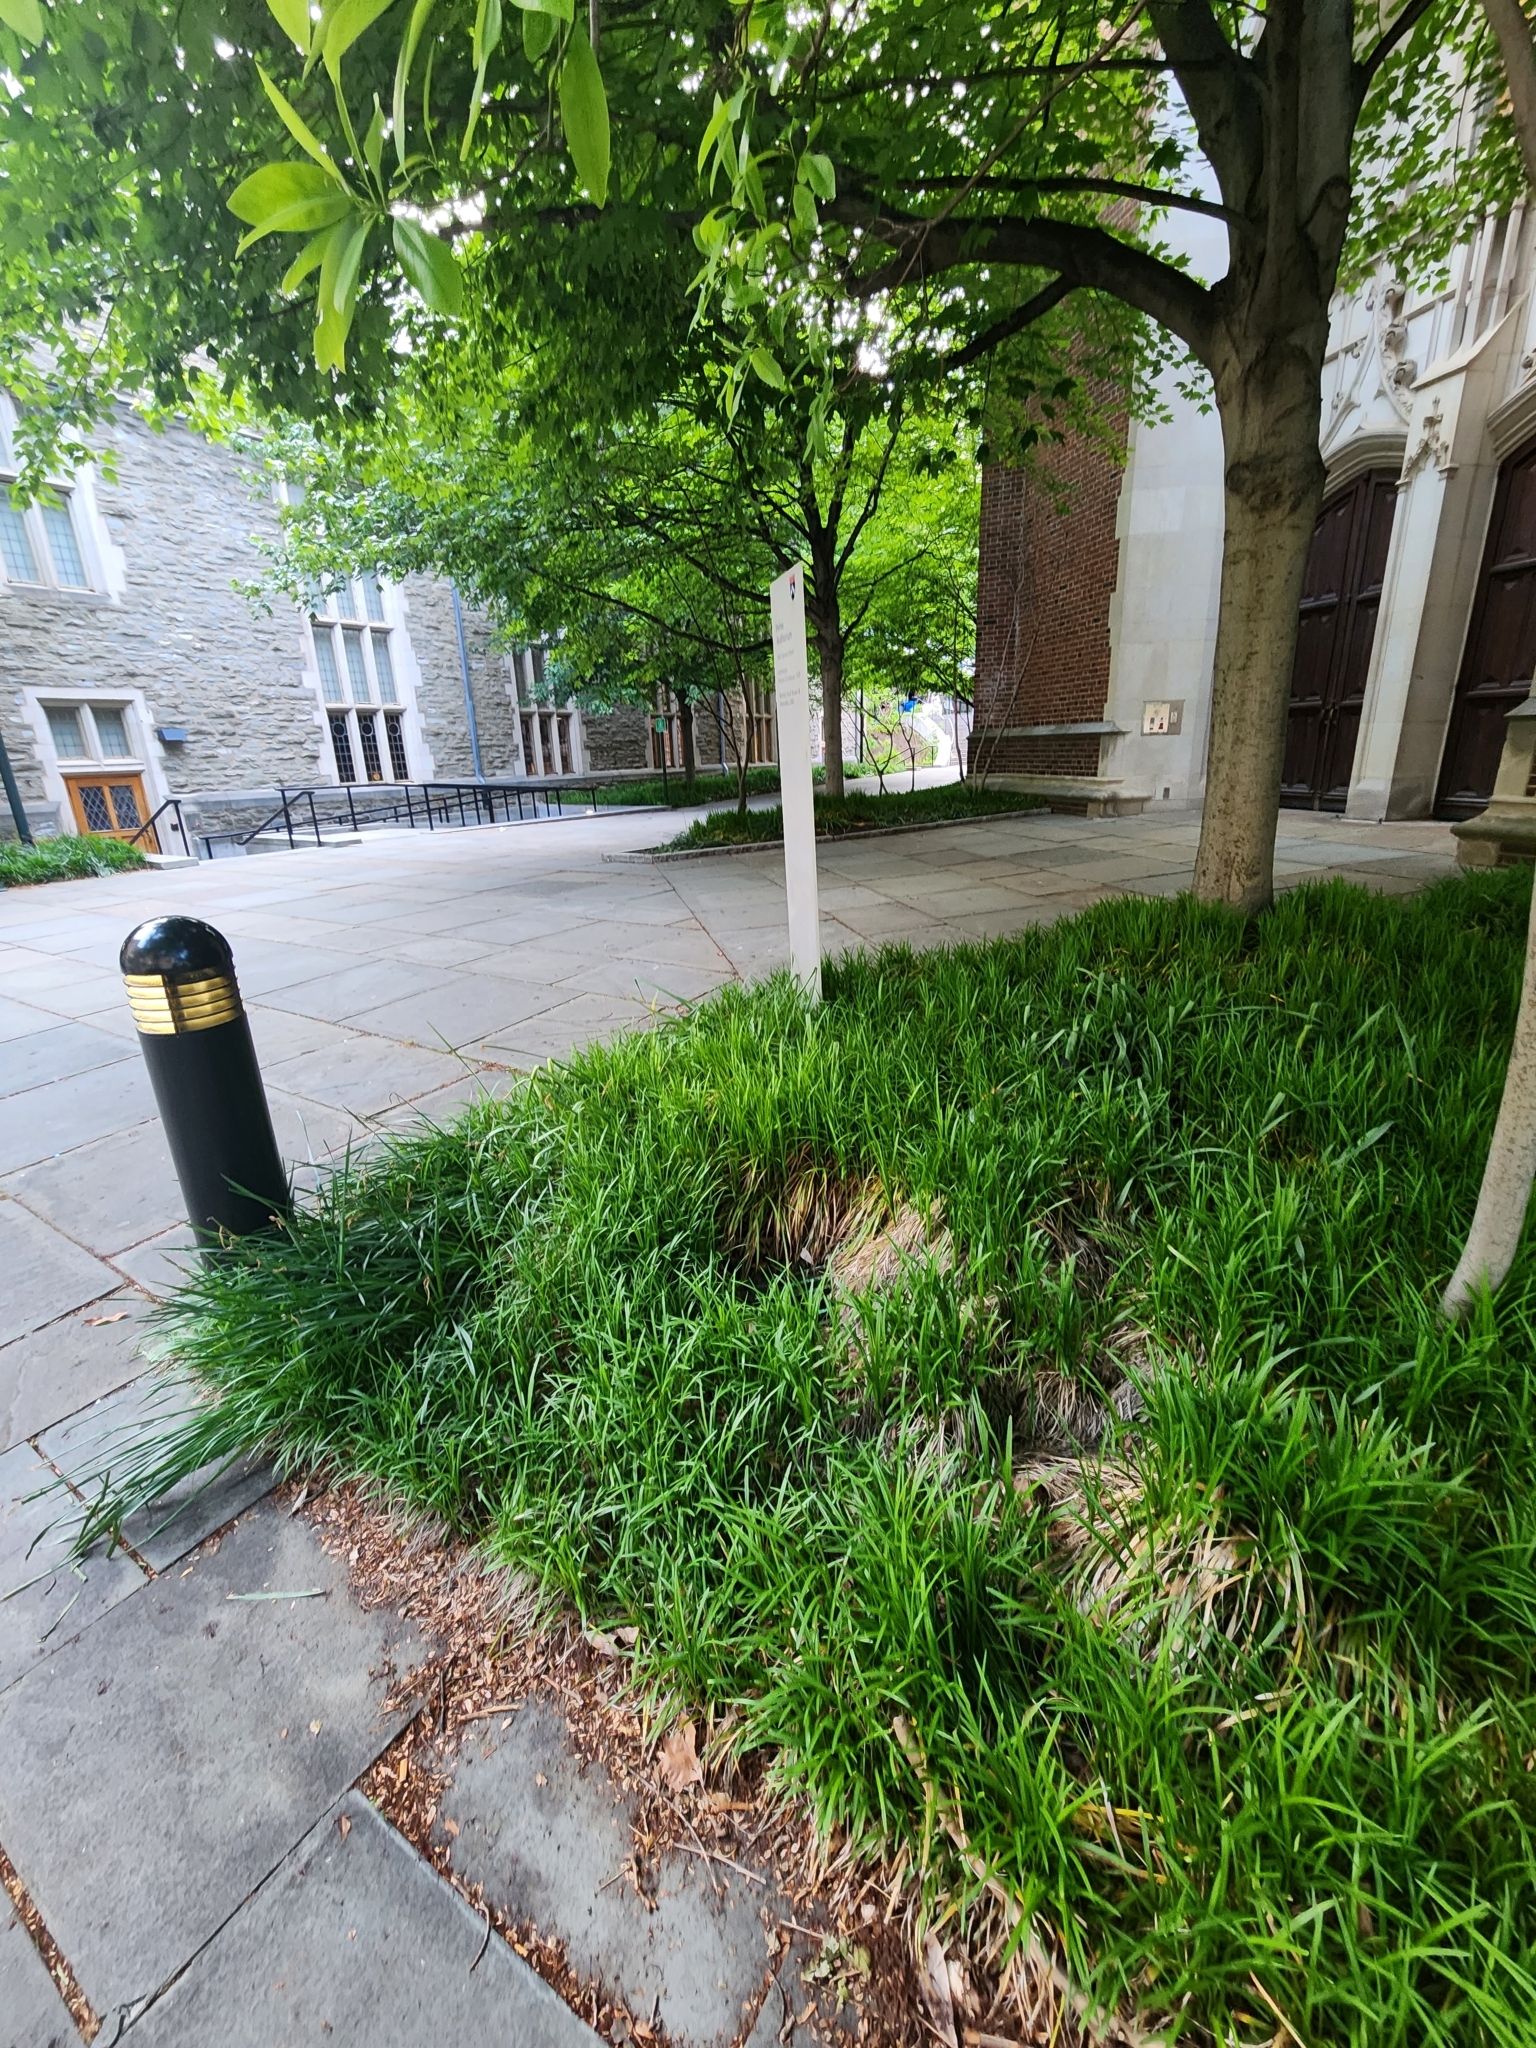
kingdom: Animalia
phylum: Chordata
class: Mammalia
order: Rodentia
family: Sciuridae
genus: Sciurus
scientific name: Sciurus carolinensis
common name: Eastern gray squirrel
